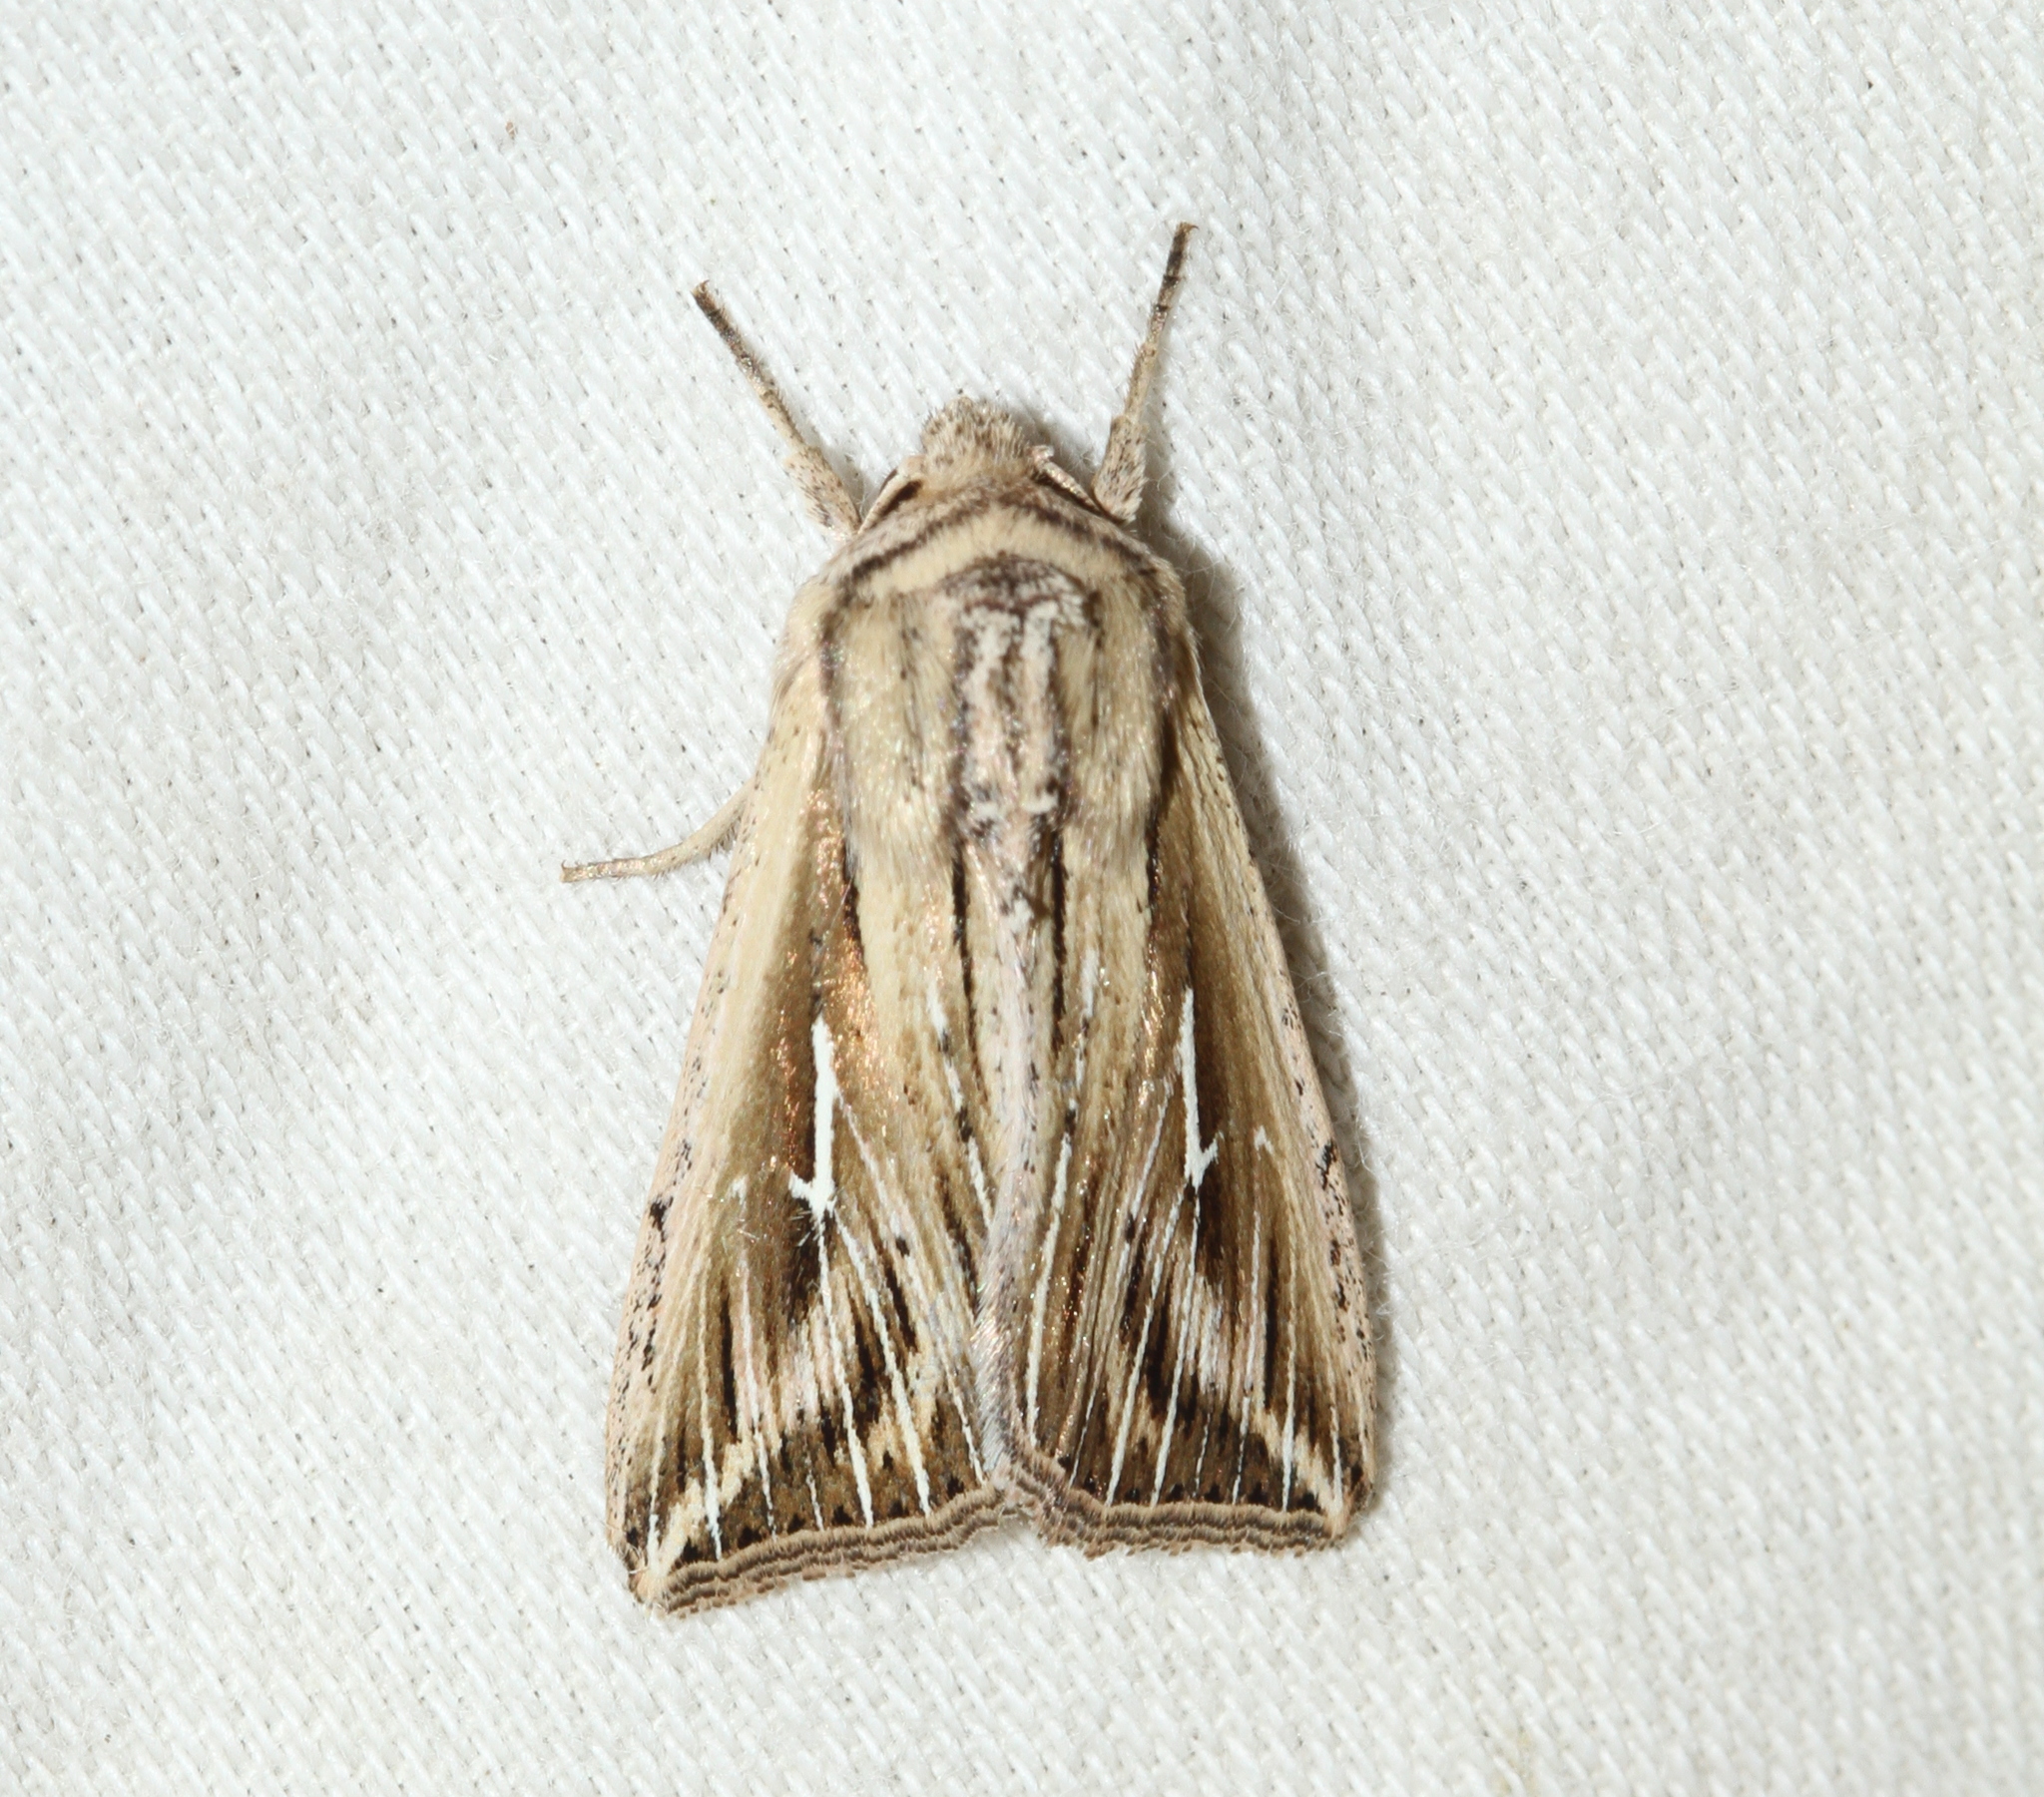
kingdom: Animalia
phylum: Arthropoda
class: Insecta
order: Lepidoptera
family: Noctuidae
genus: Mythimna
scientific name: Mythimna l-album
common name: L-album wainscot
